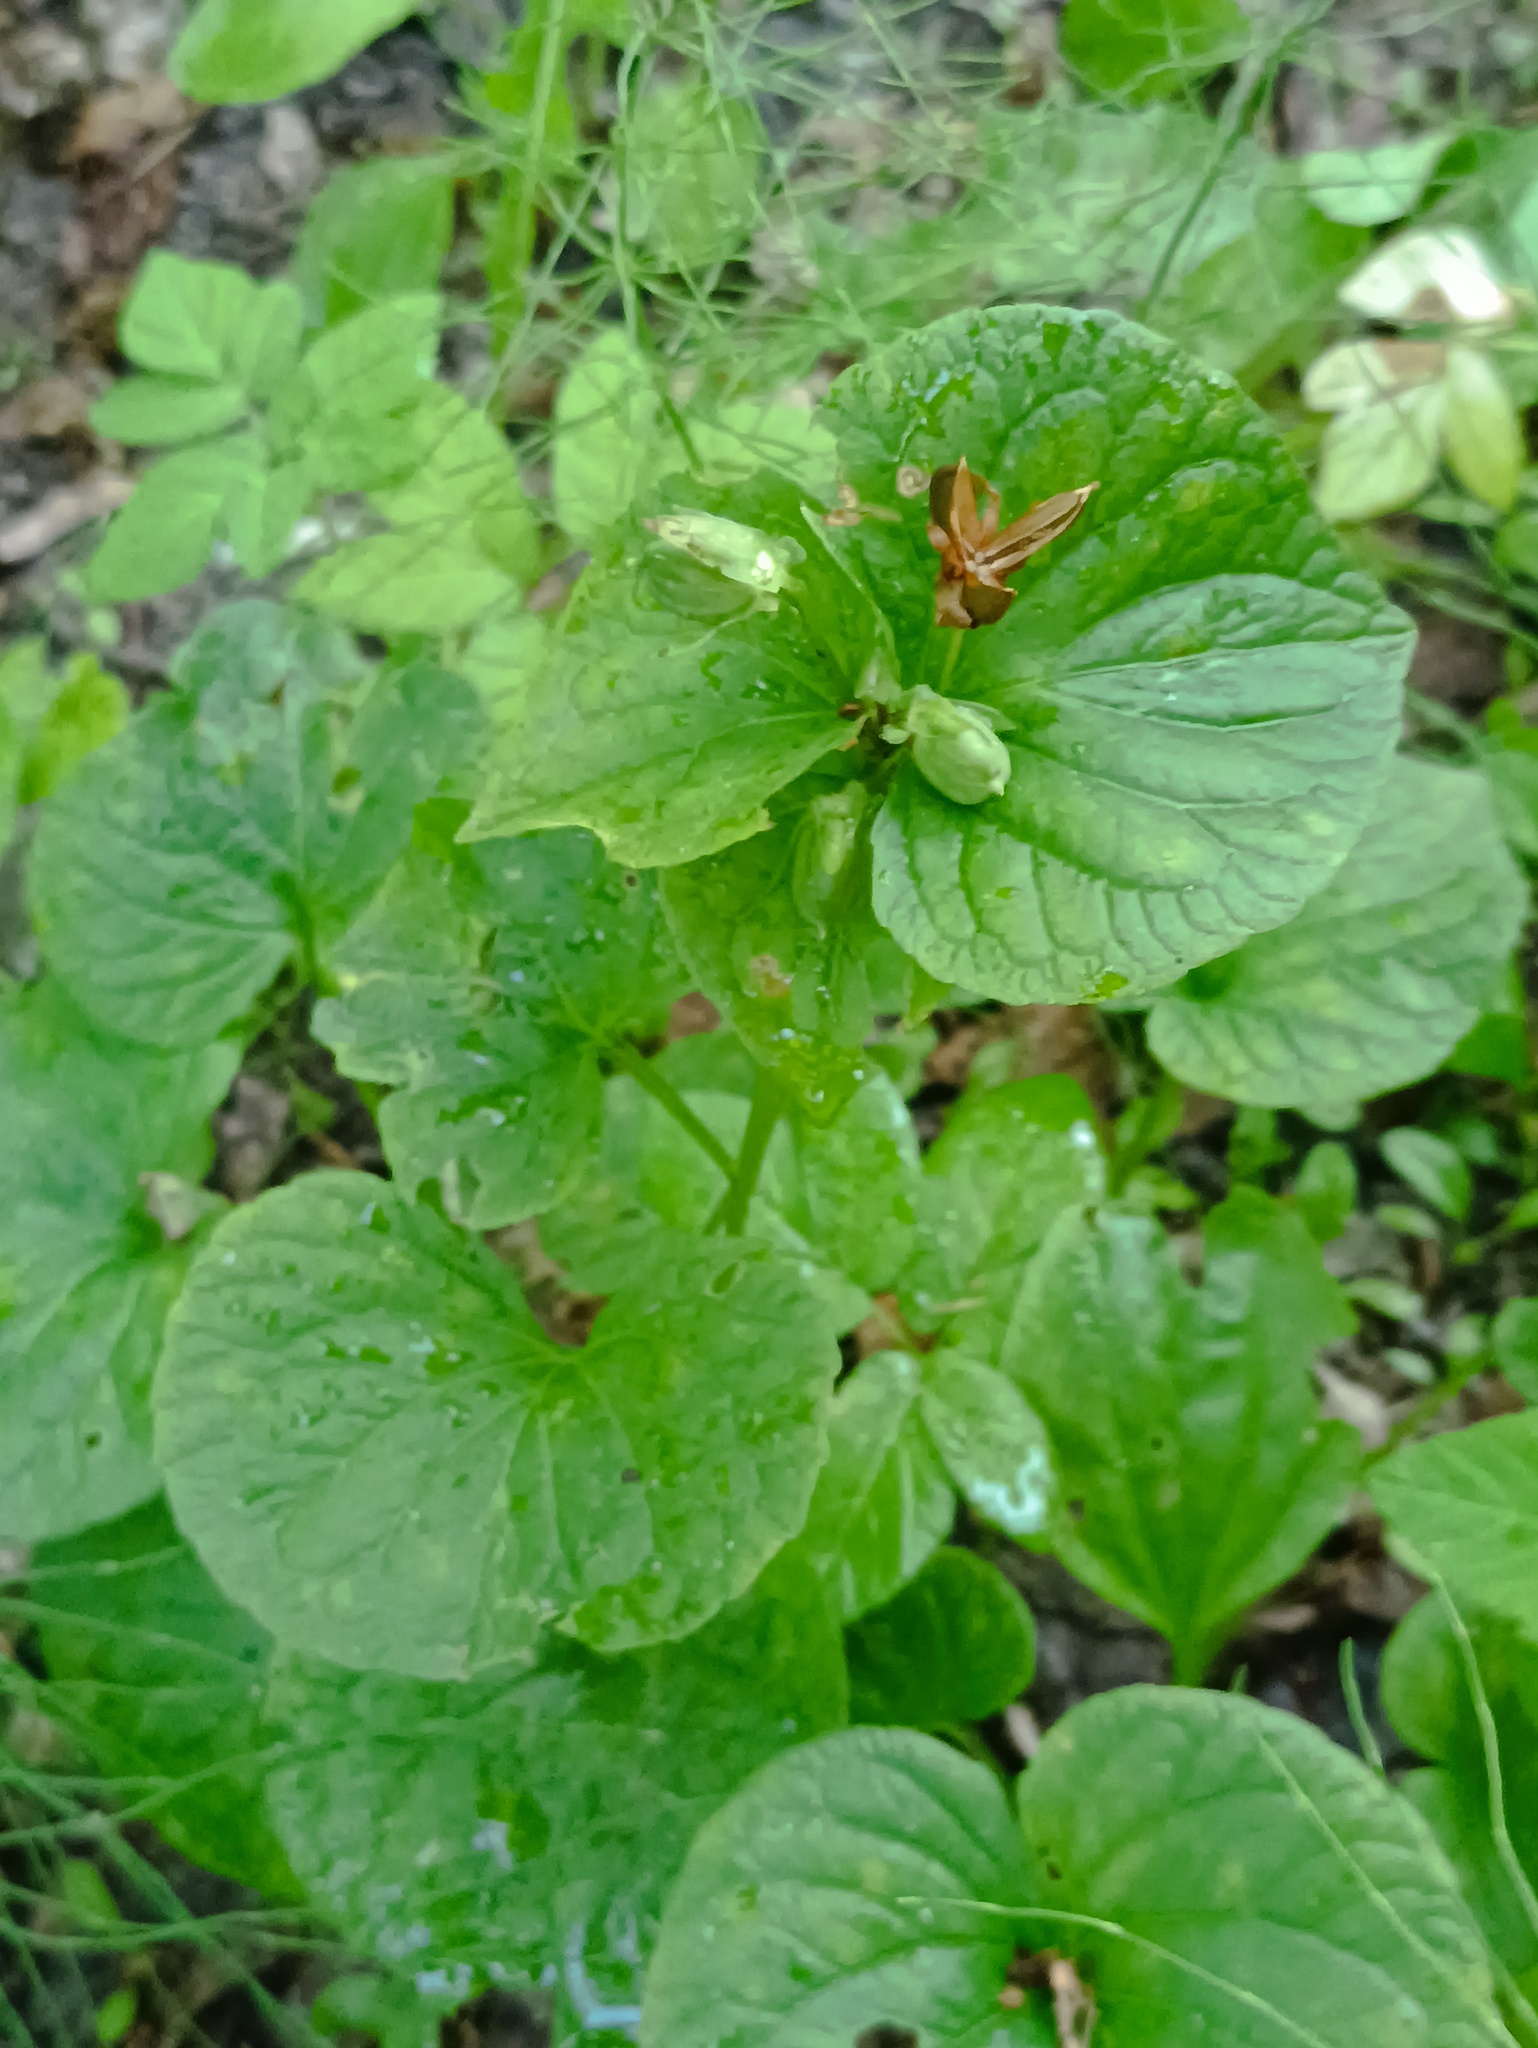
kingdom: Plantae
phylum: Tracheophyta
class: Magnoliopsida
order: Malpighiales
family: Violaceae
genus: Viola
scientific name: Viola mirabilis
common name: Wonder violet
